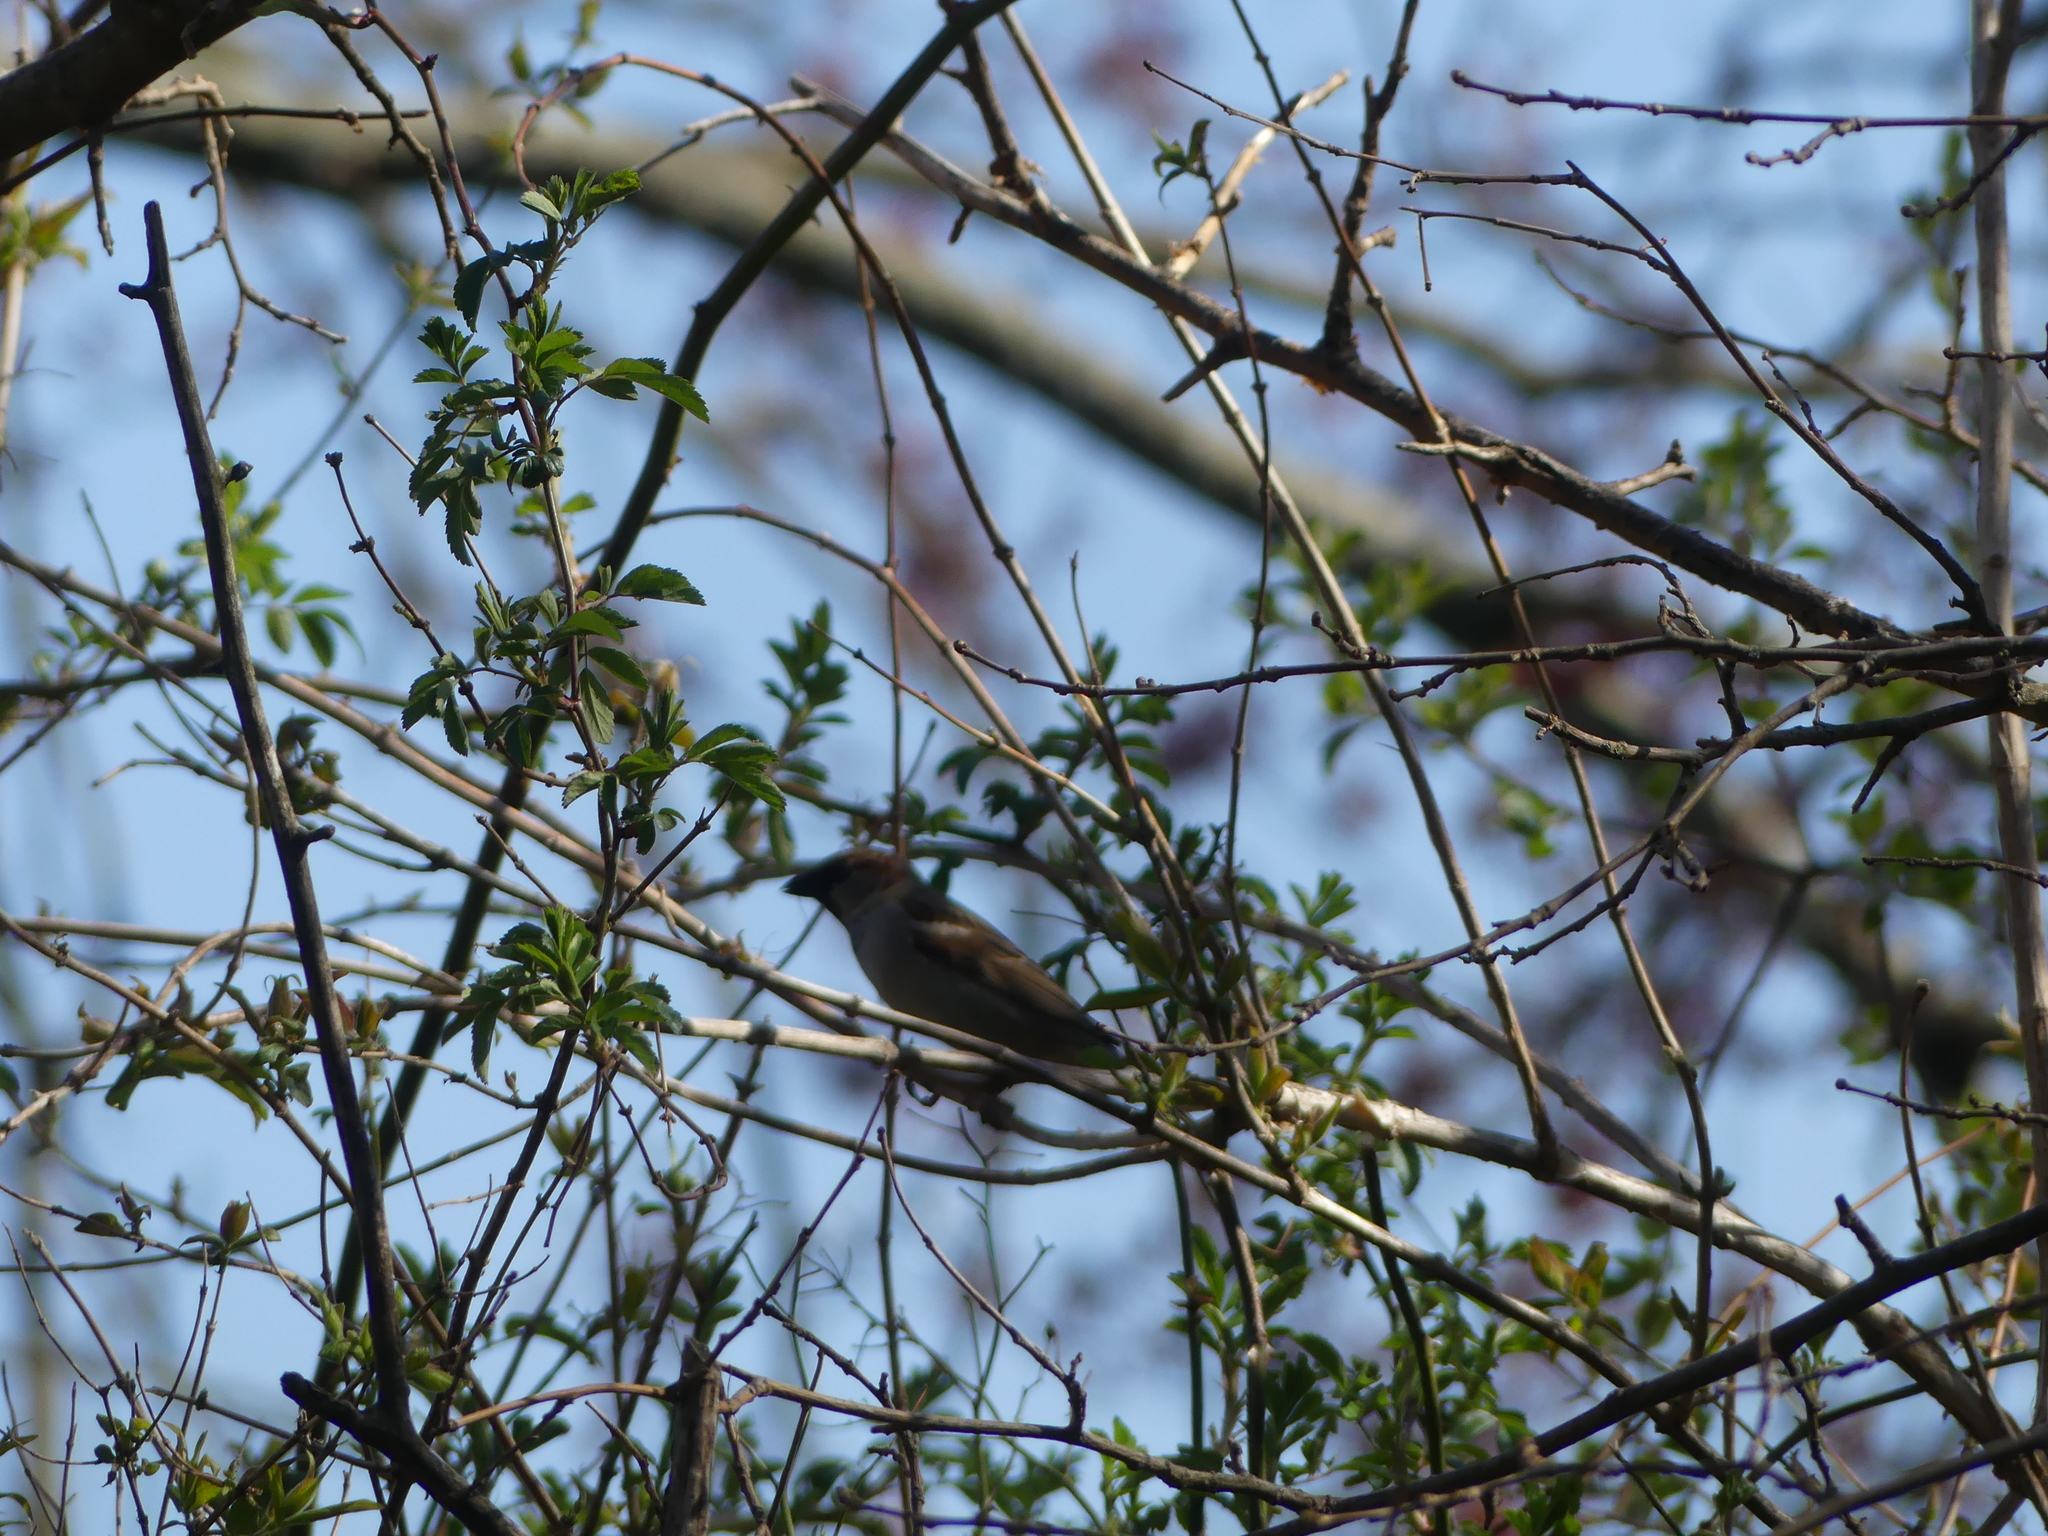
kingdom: Animalia
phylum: Chordata
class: Aves
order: Passeriformes
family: Passeridae
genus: Passer
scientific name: Passer domesticus
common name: House sparrow
